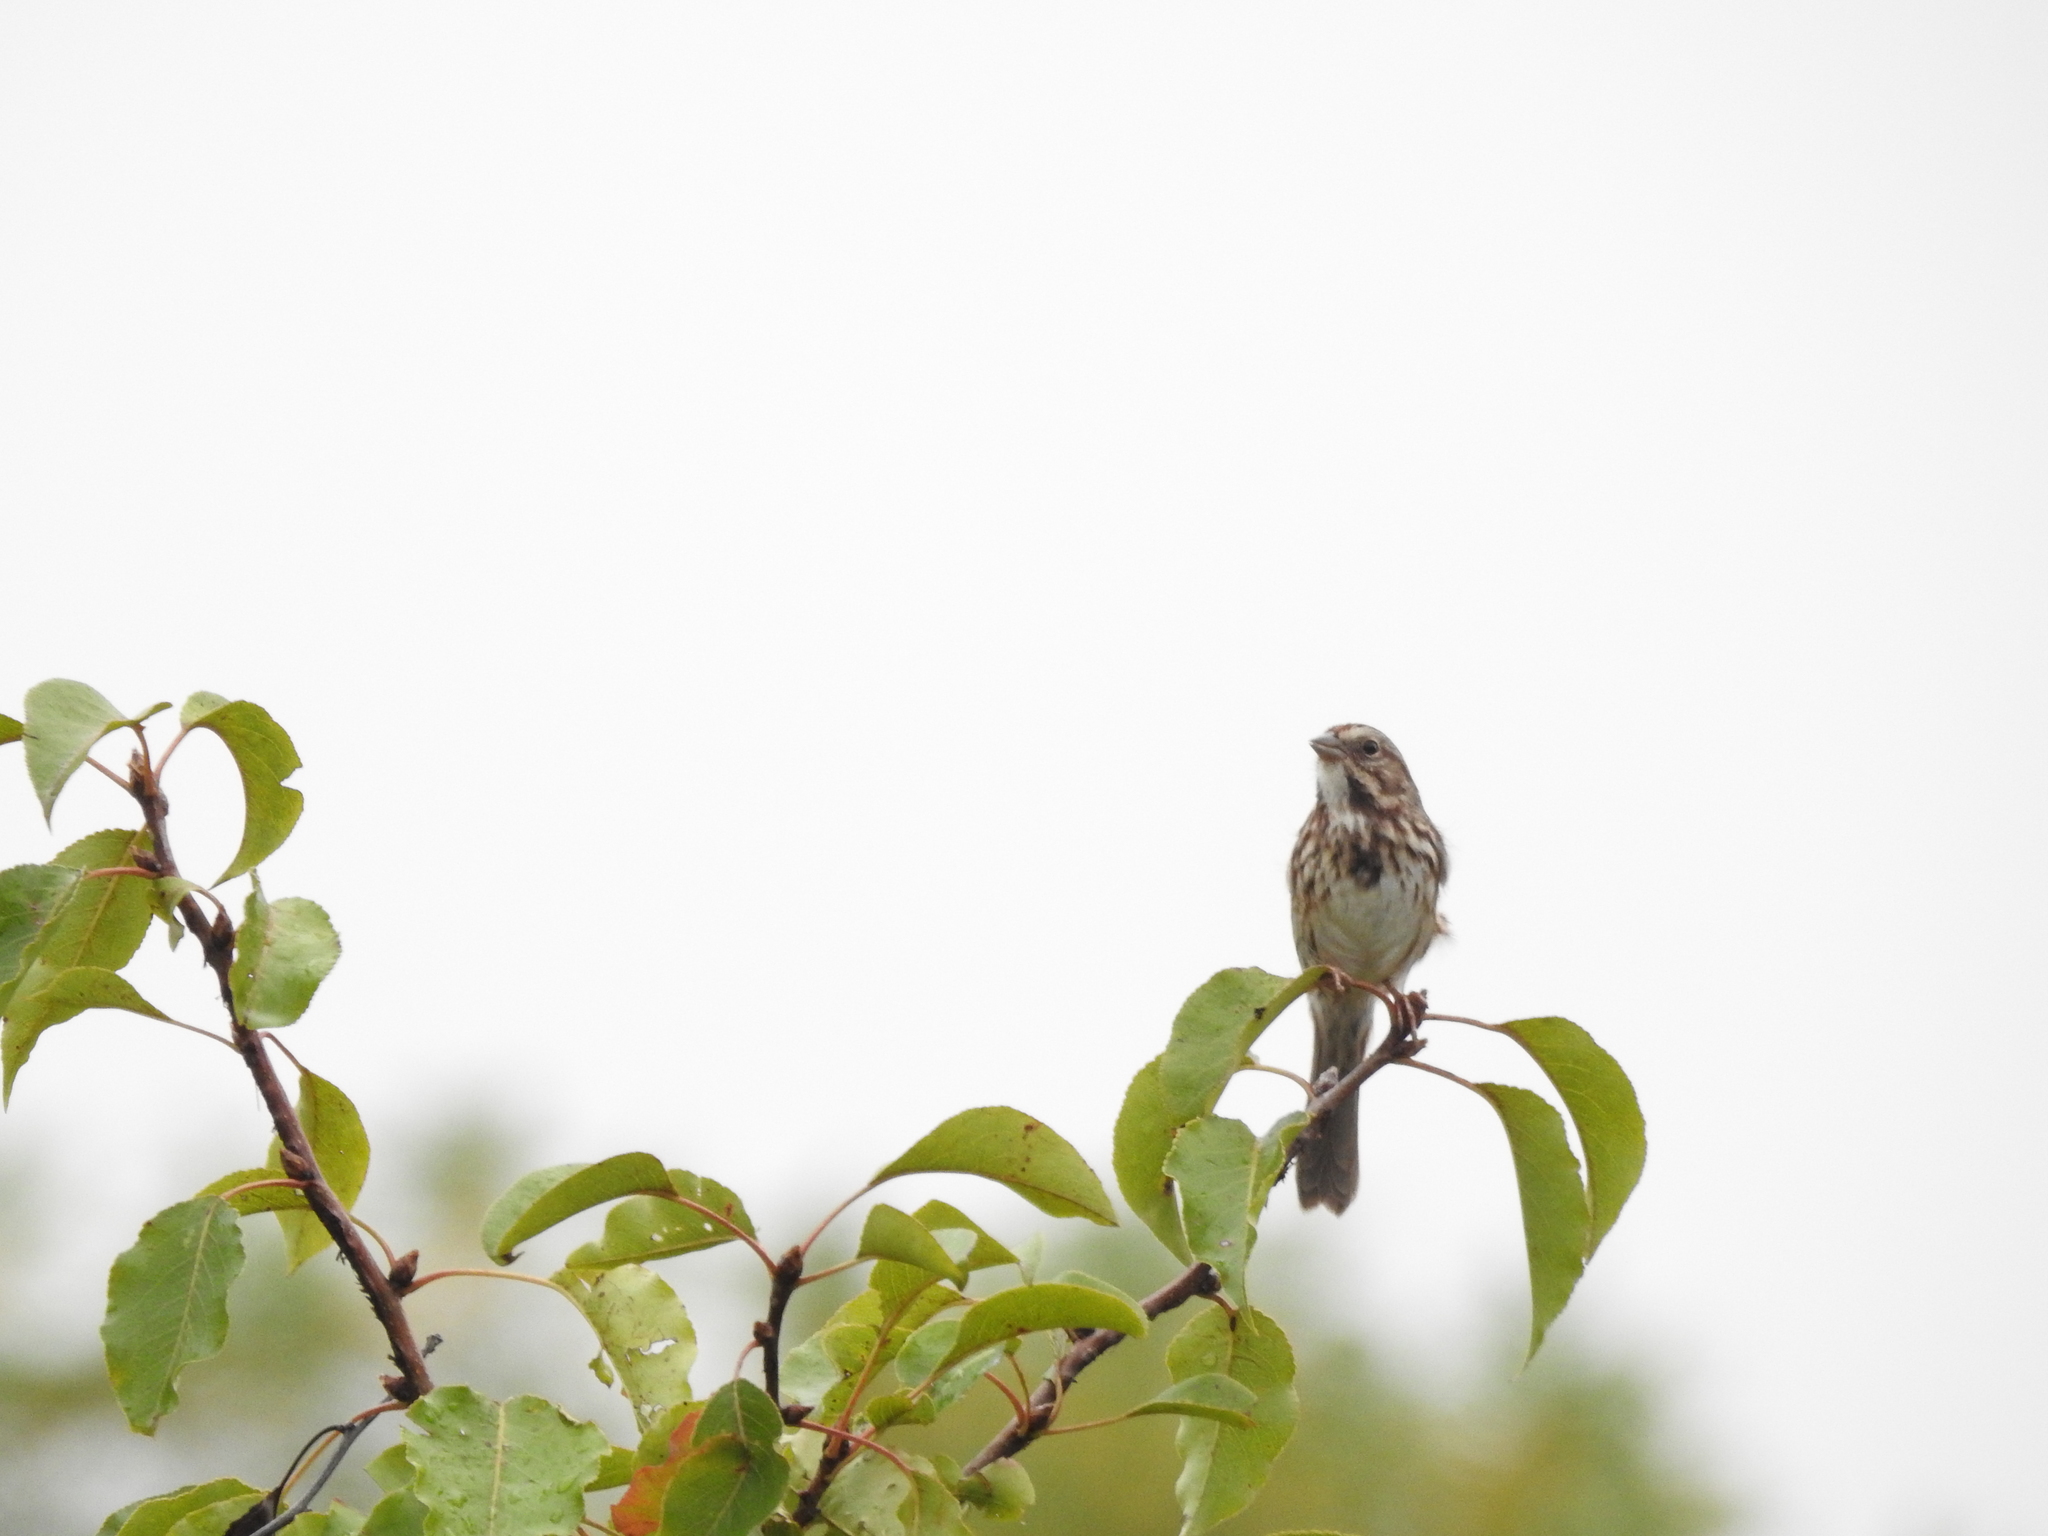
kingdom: Animalia
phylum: Chordata
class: Aves
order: Passeriformes
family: Passerellidae
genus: Melospiza
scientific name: Melospiza melodia
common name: Song sparrow
